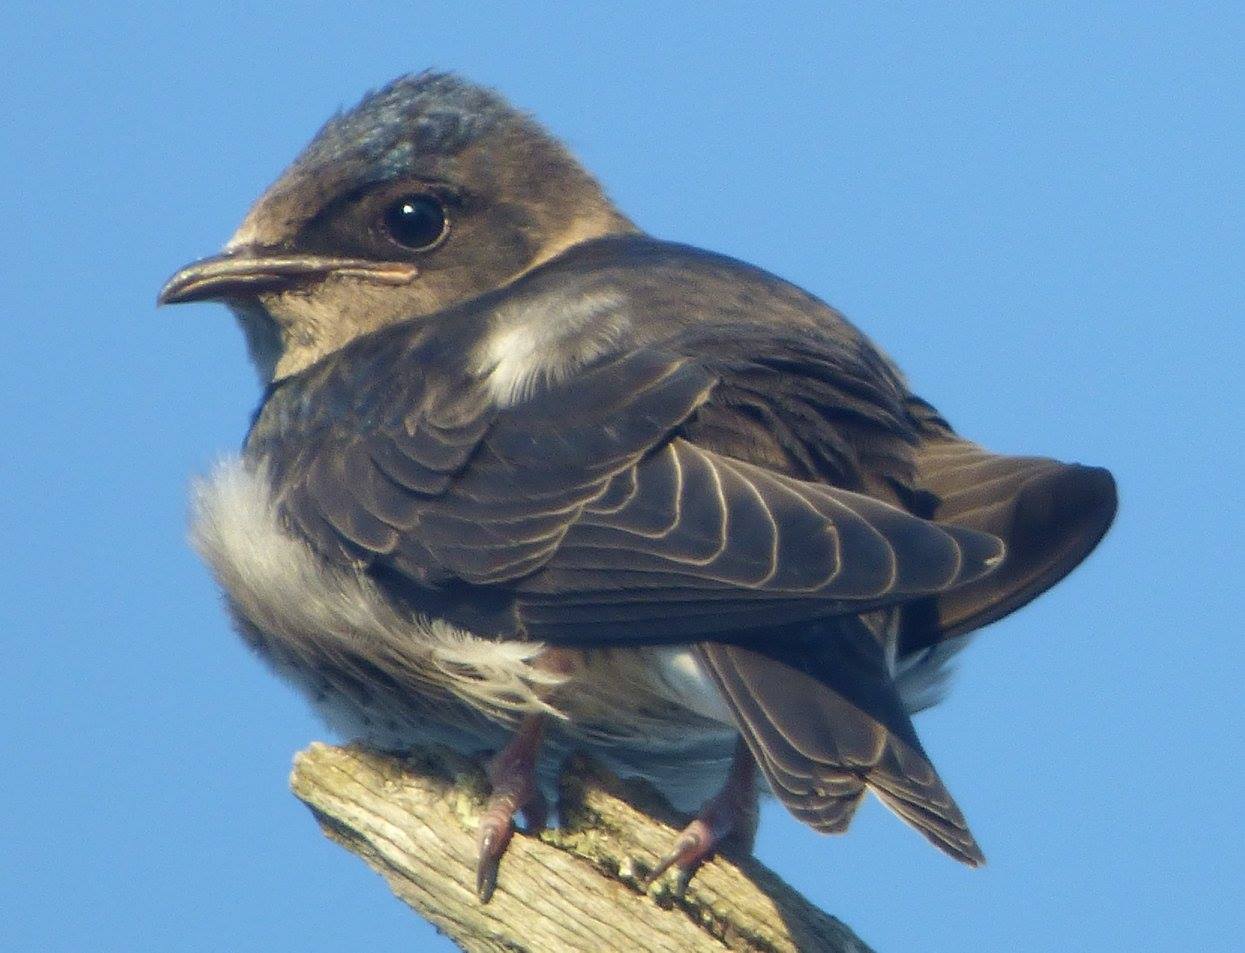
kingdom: Animalia
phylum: Chordata
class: Aves
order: Passeriformes
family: Hirundinidae
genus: Progne
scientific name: Progne subis
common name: Purple martin
